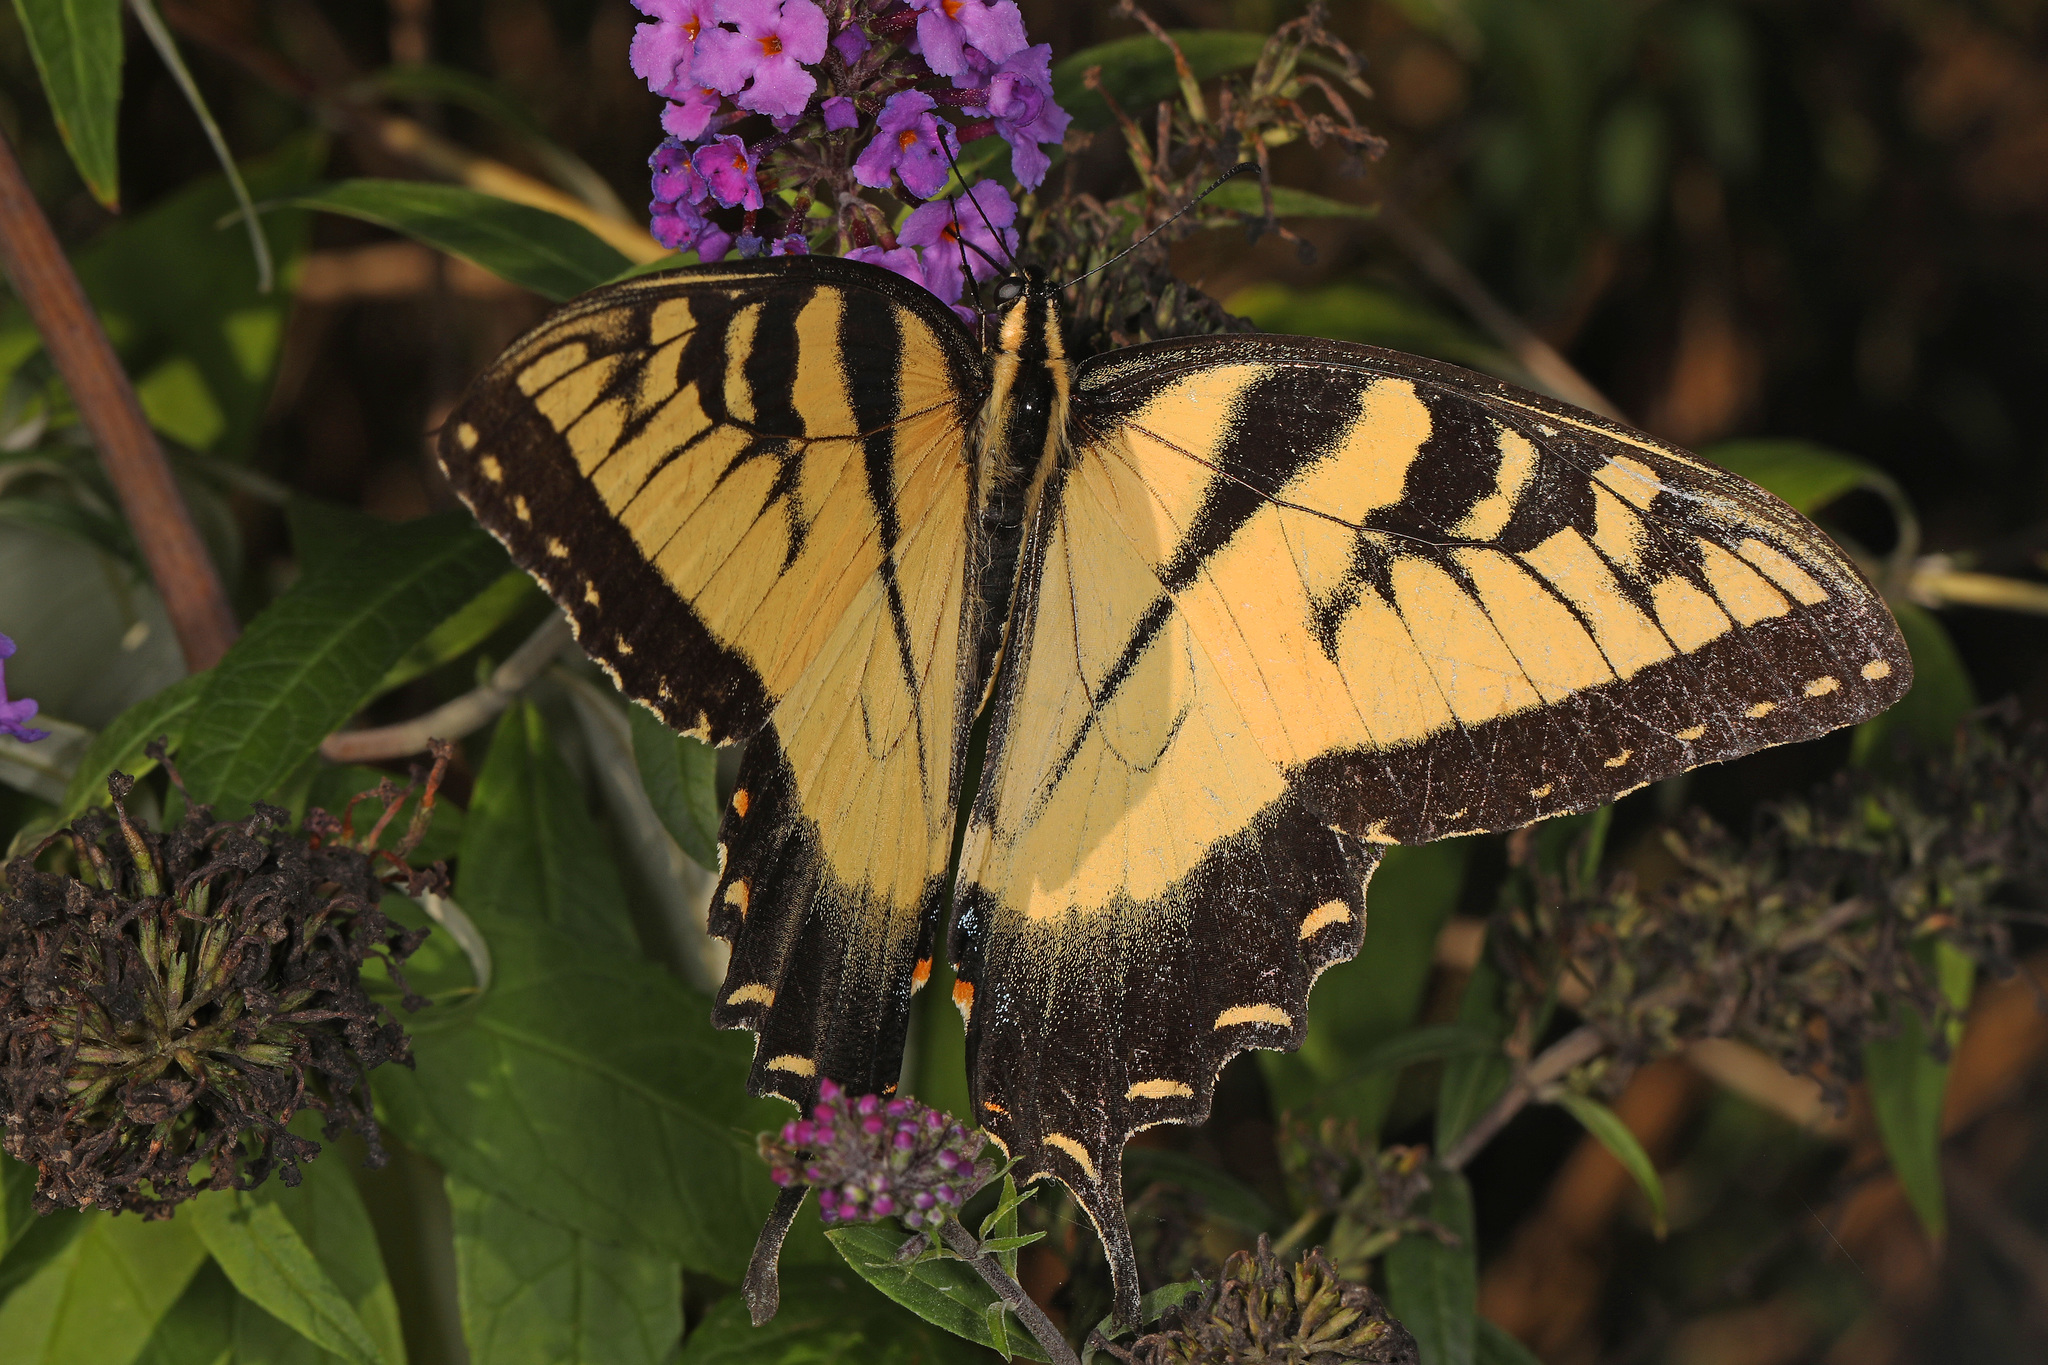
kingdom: Animalia
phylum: Arthropoda
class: Insecta
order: Lepidoptera
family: Papilionidae
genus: Papilio
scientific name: Papilio glaucus
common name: Tiger swallowtail
